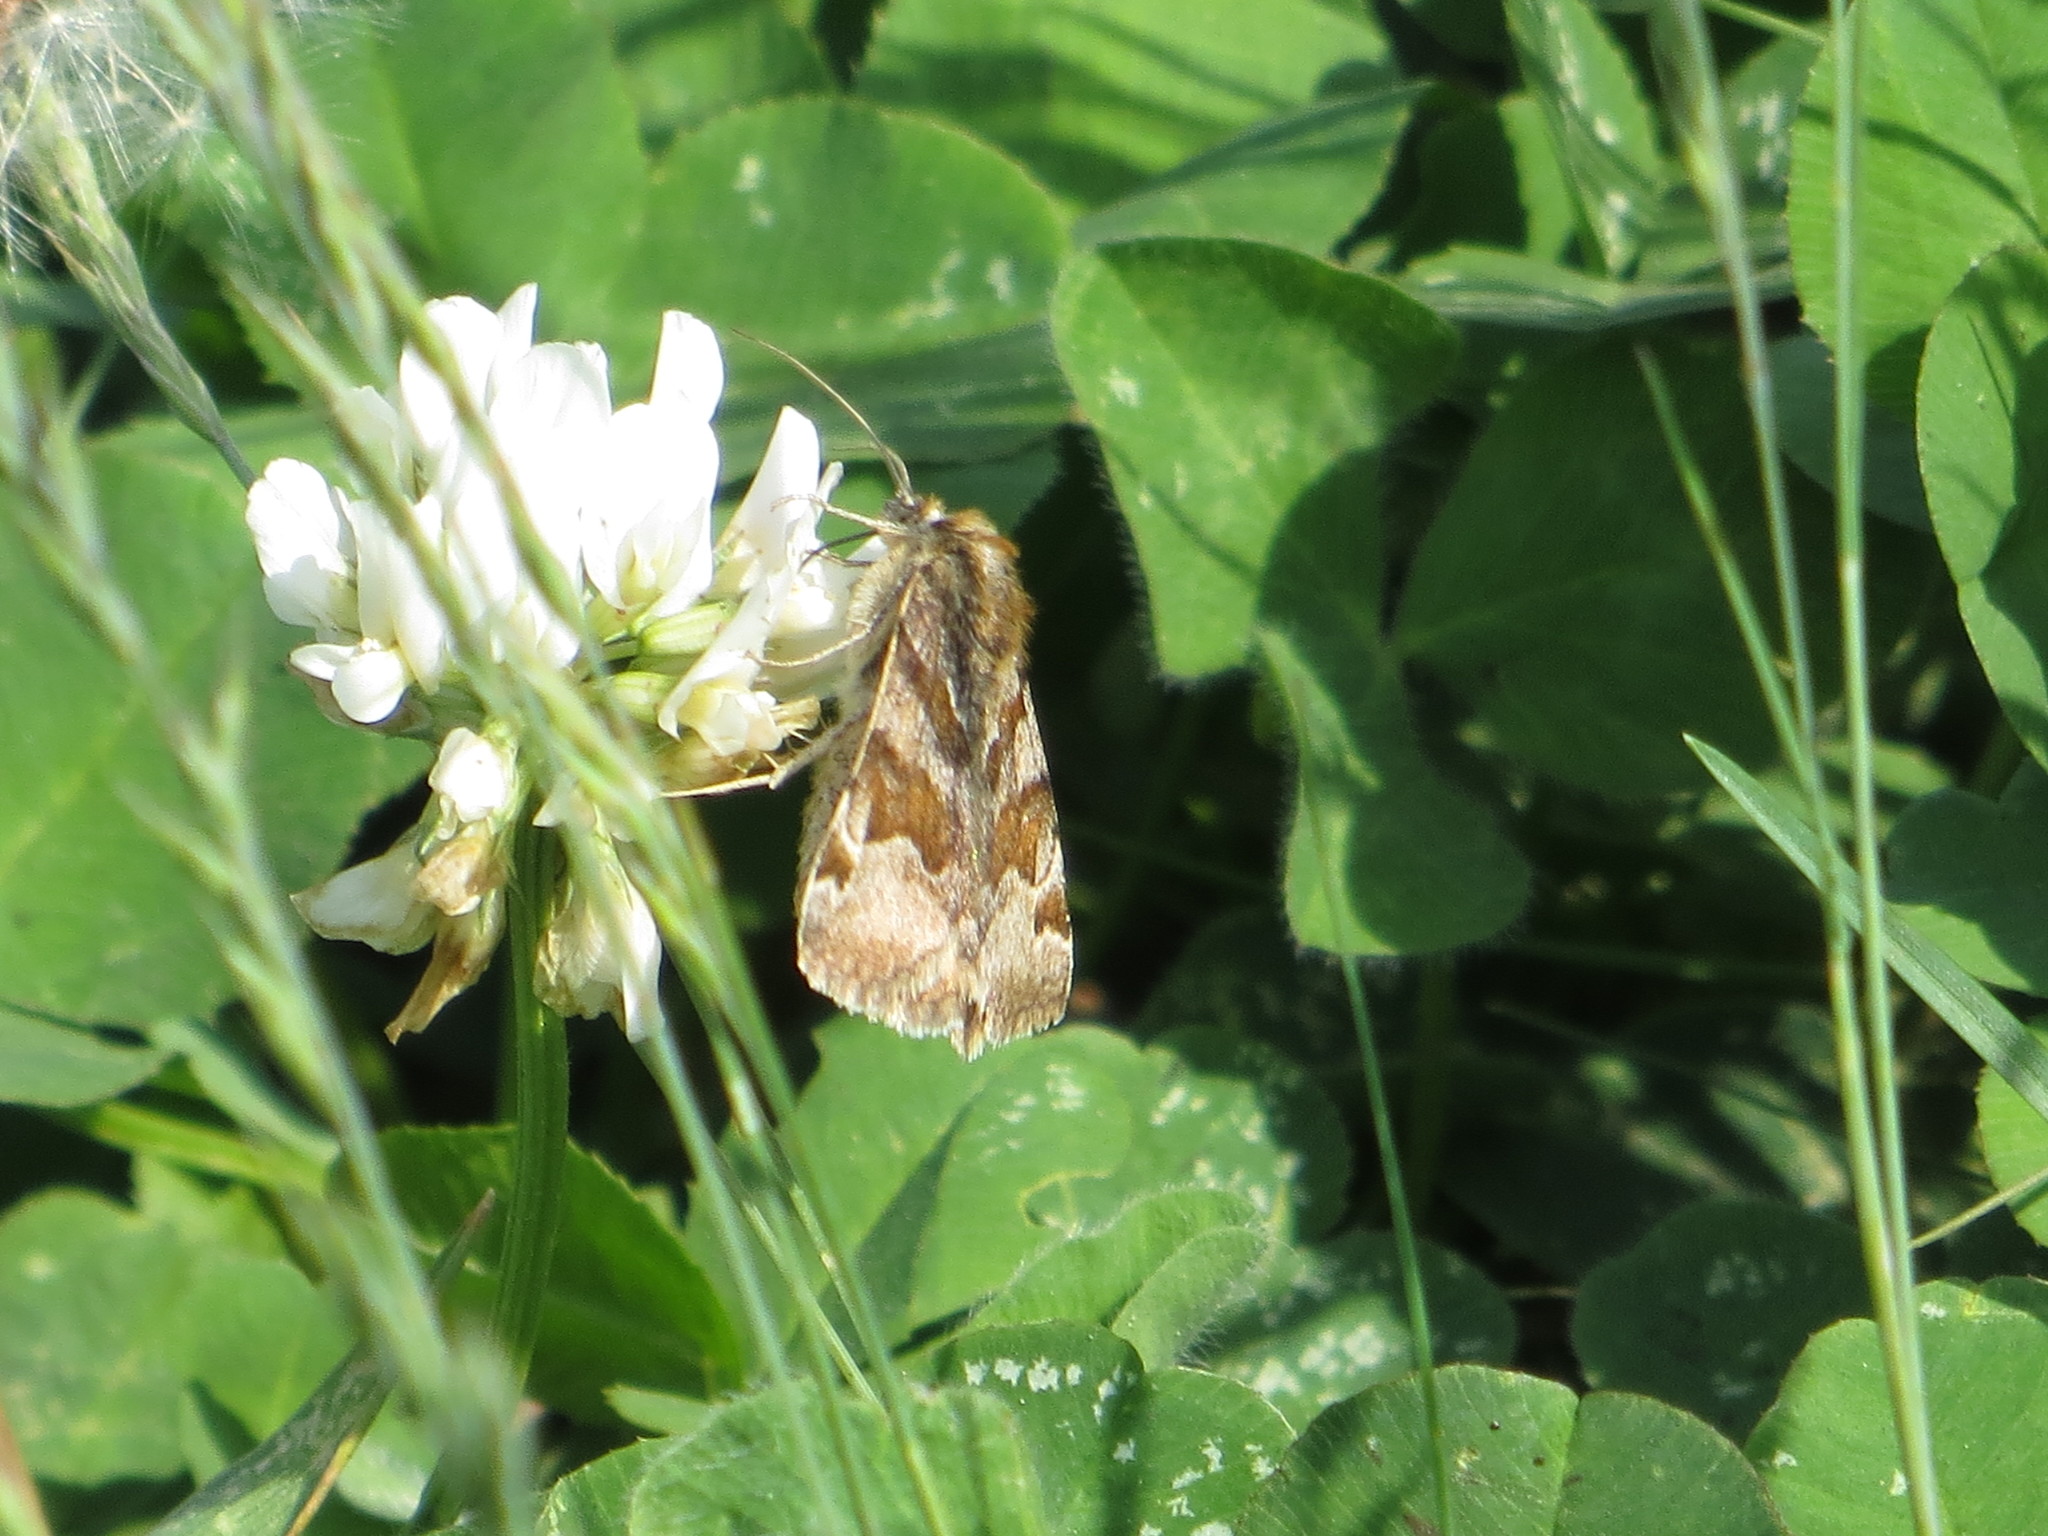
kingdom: Animalia
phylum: Arthropoda
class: Insecta
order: Lepidoptera
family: Erebidae
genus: Euclidia
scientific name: Euclidia glyphica
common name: Burnet companion
